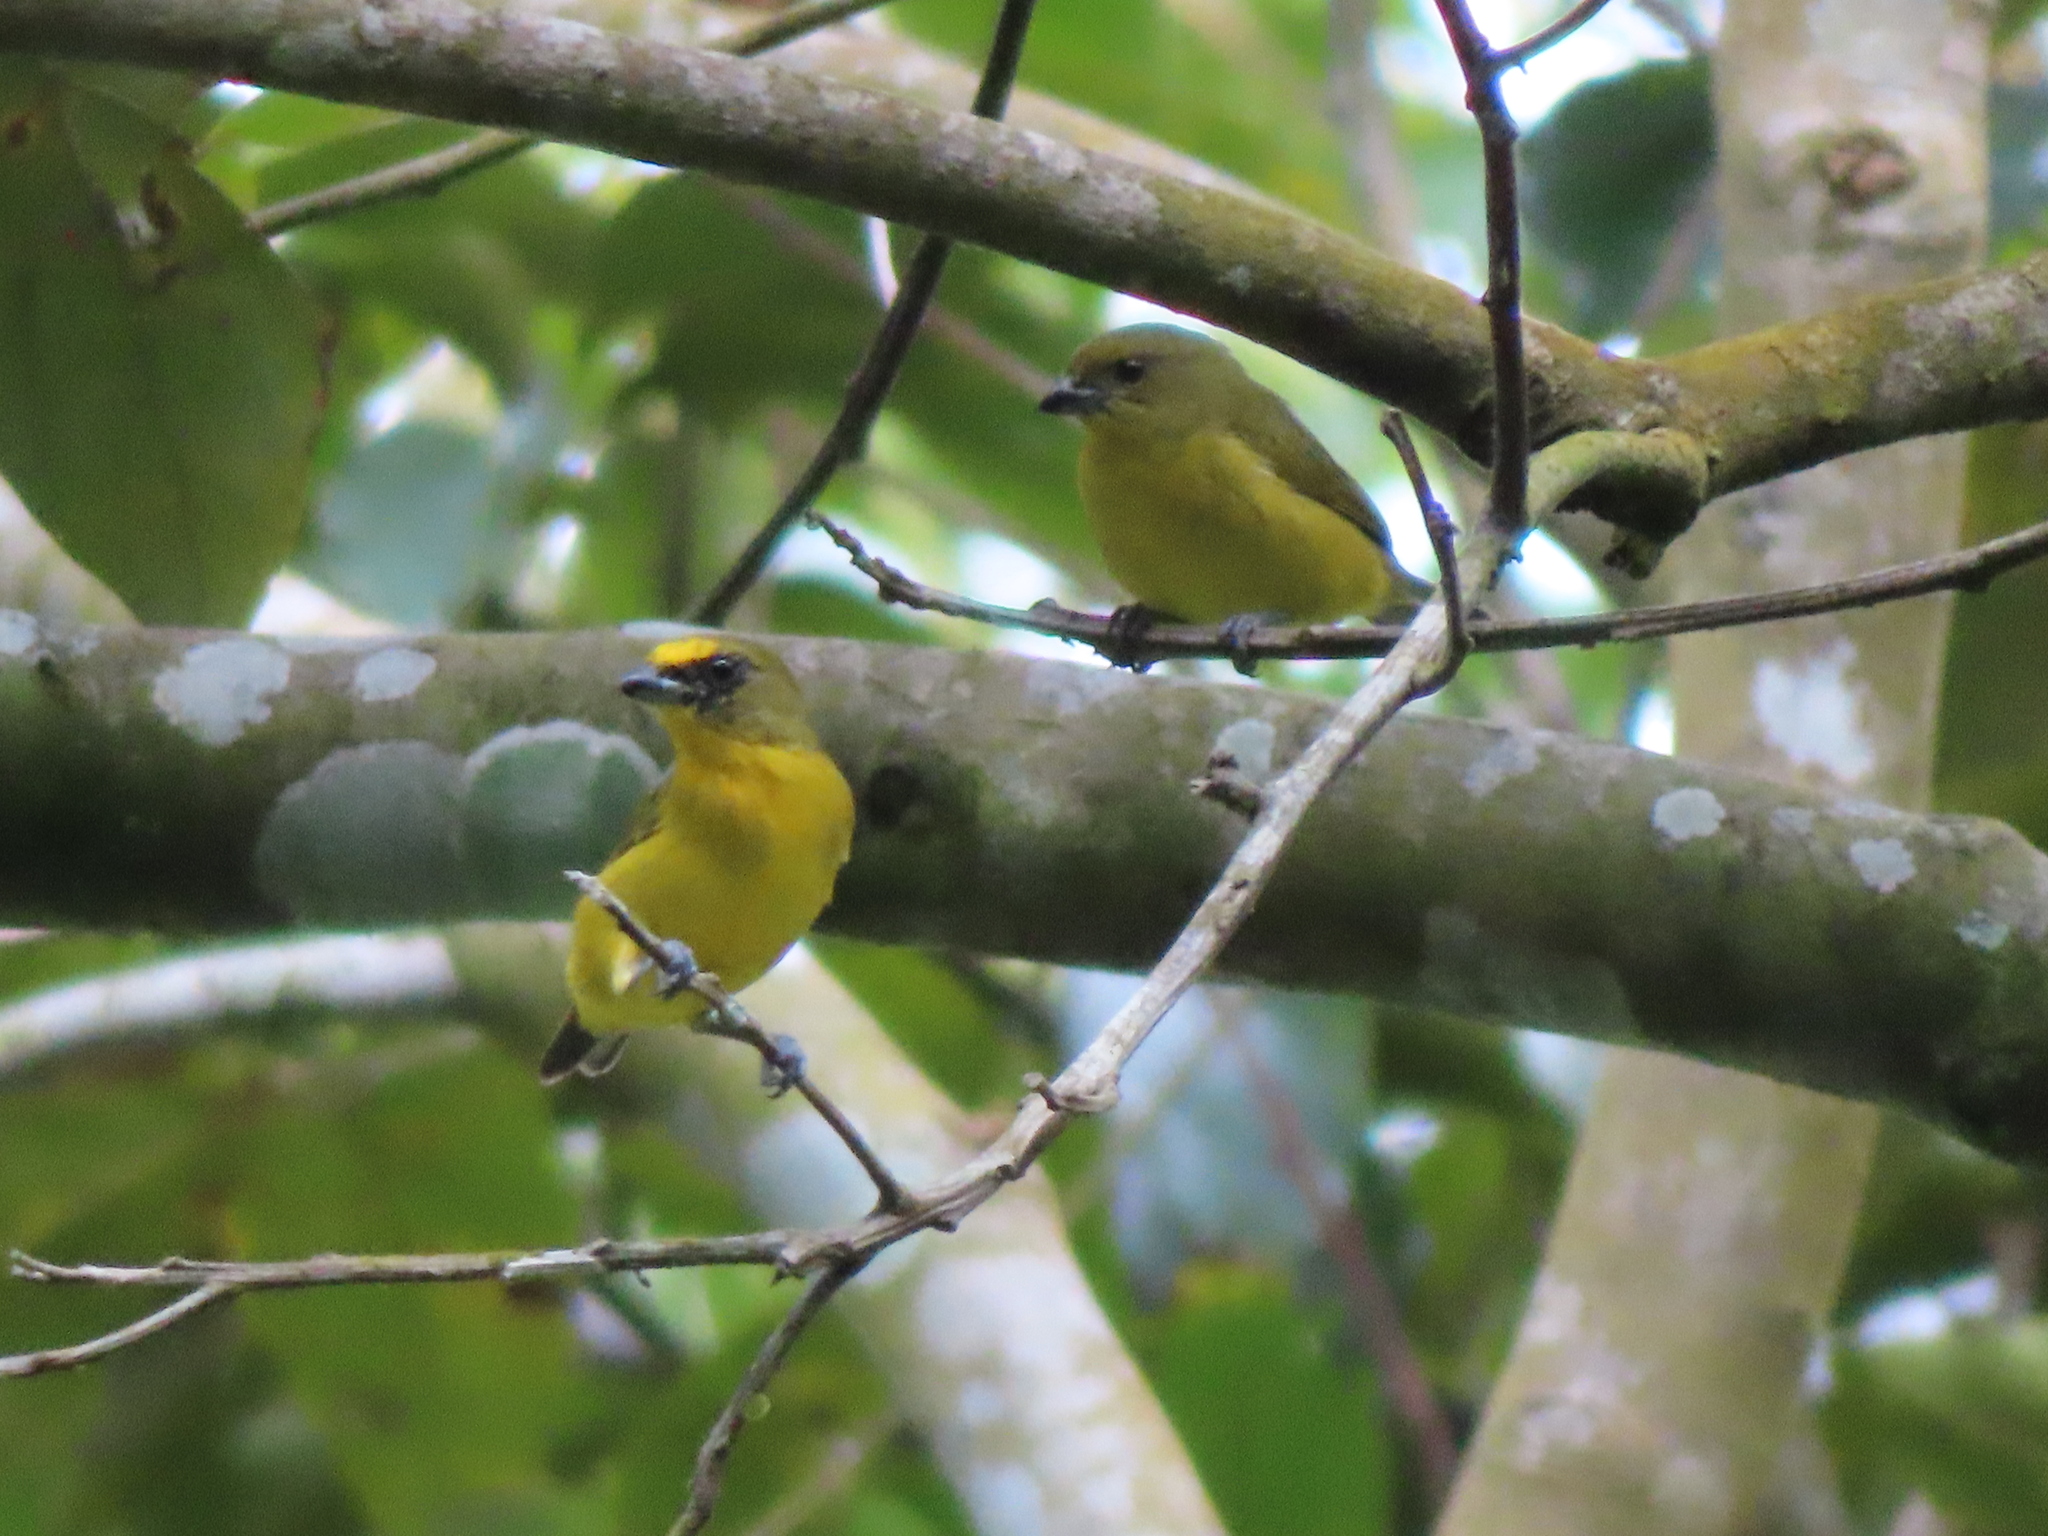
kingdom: Animalia
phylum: Chordata
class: Aves
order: Passeriformes
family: Fringillidae
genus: Euphonia
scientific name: Euphonia laniirostris
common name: Thick-billed euphonia
